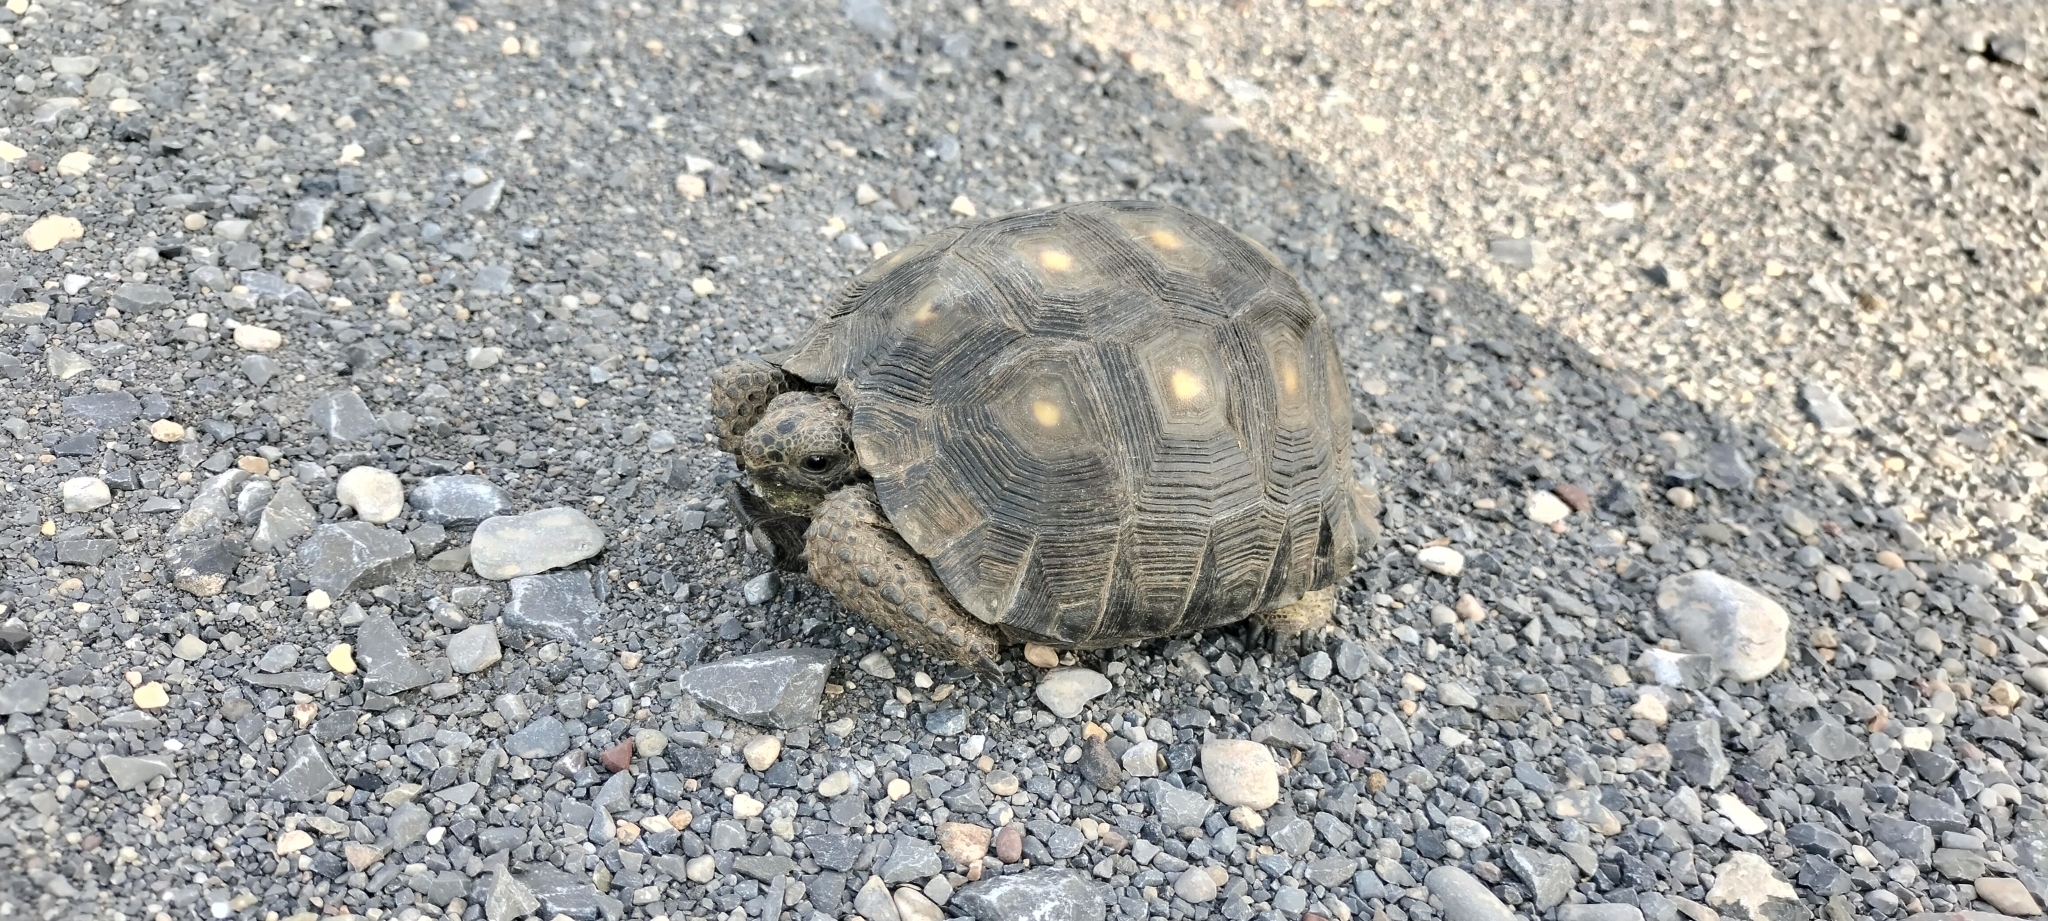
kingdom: Animalia
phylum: Chordata
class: Testudines
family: Testudinidae
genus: Gopherus
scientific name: Gopherus berlandieri
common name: Texas (gopher )tortoise
